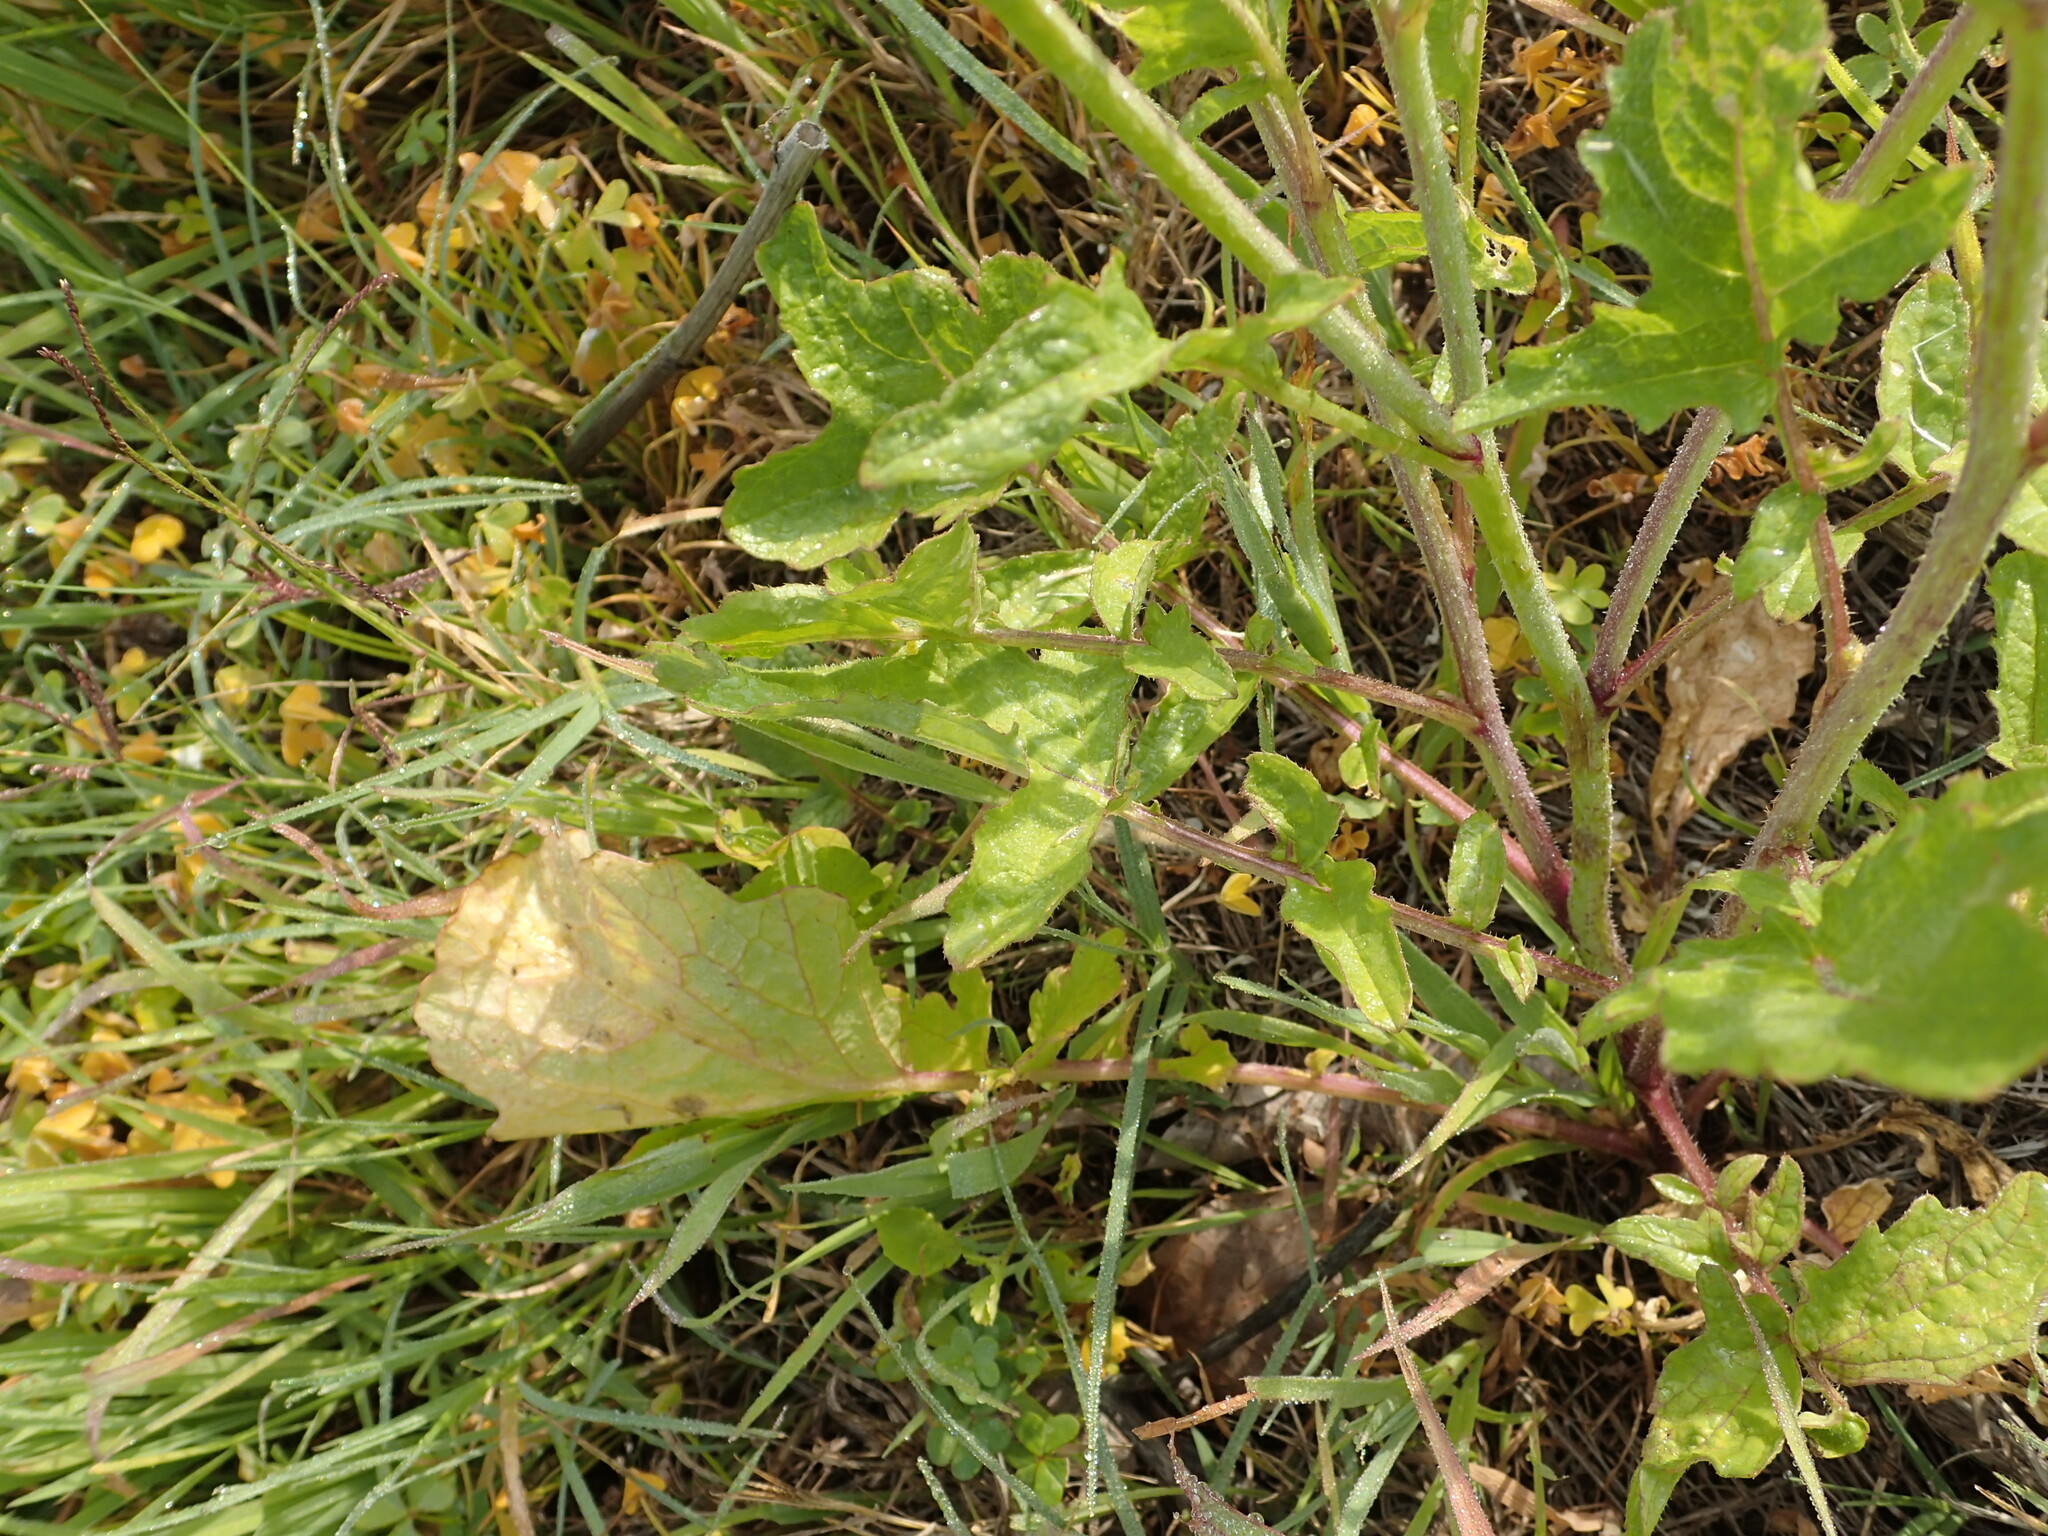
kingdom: Plantae
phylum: Tracheophyta
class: Magnoliopsida
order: Brassicales
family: Brassicaceae
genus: Raphanus
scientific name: Raphanus raphanistrum
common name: Wild radish
